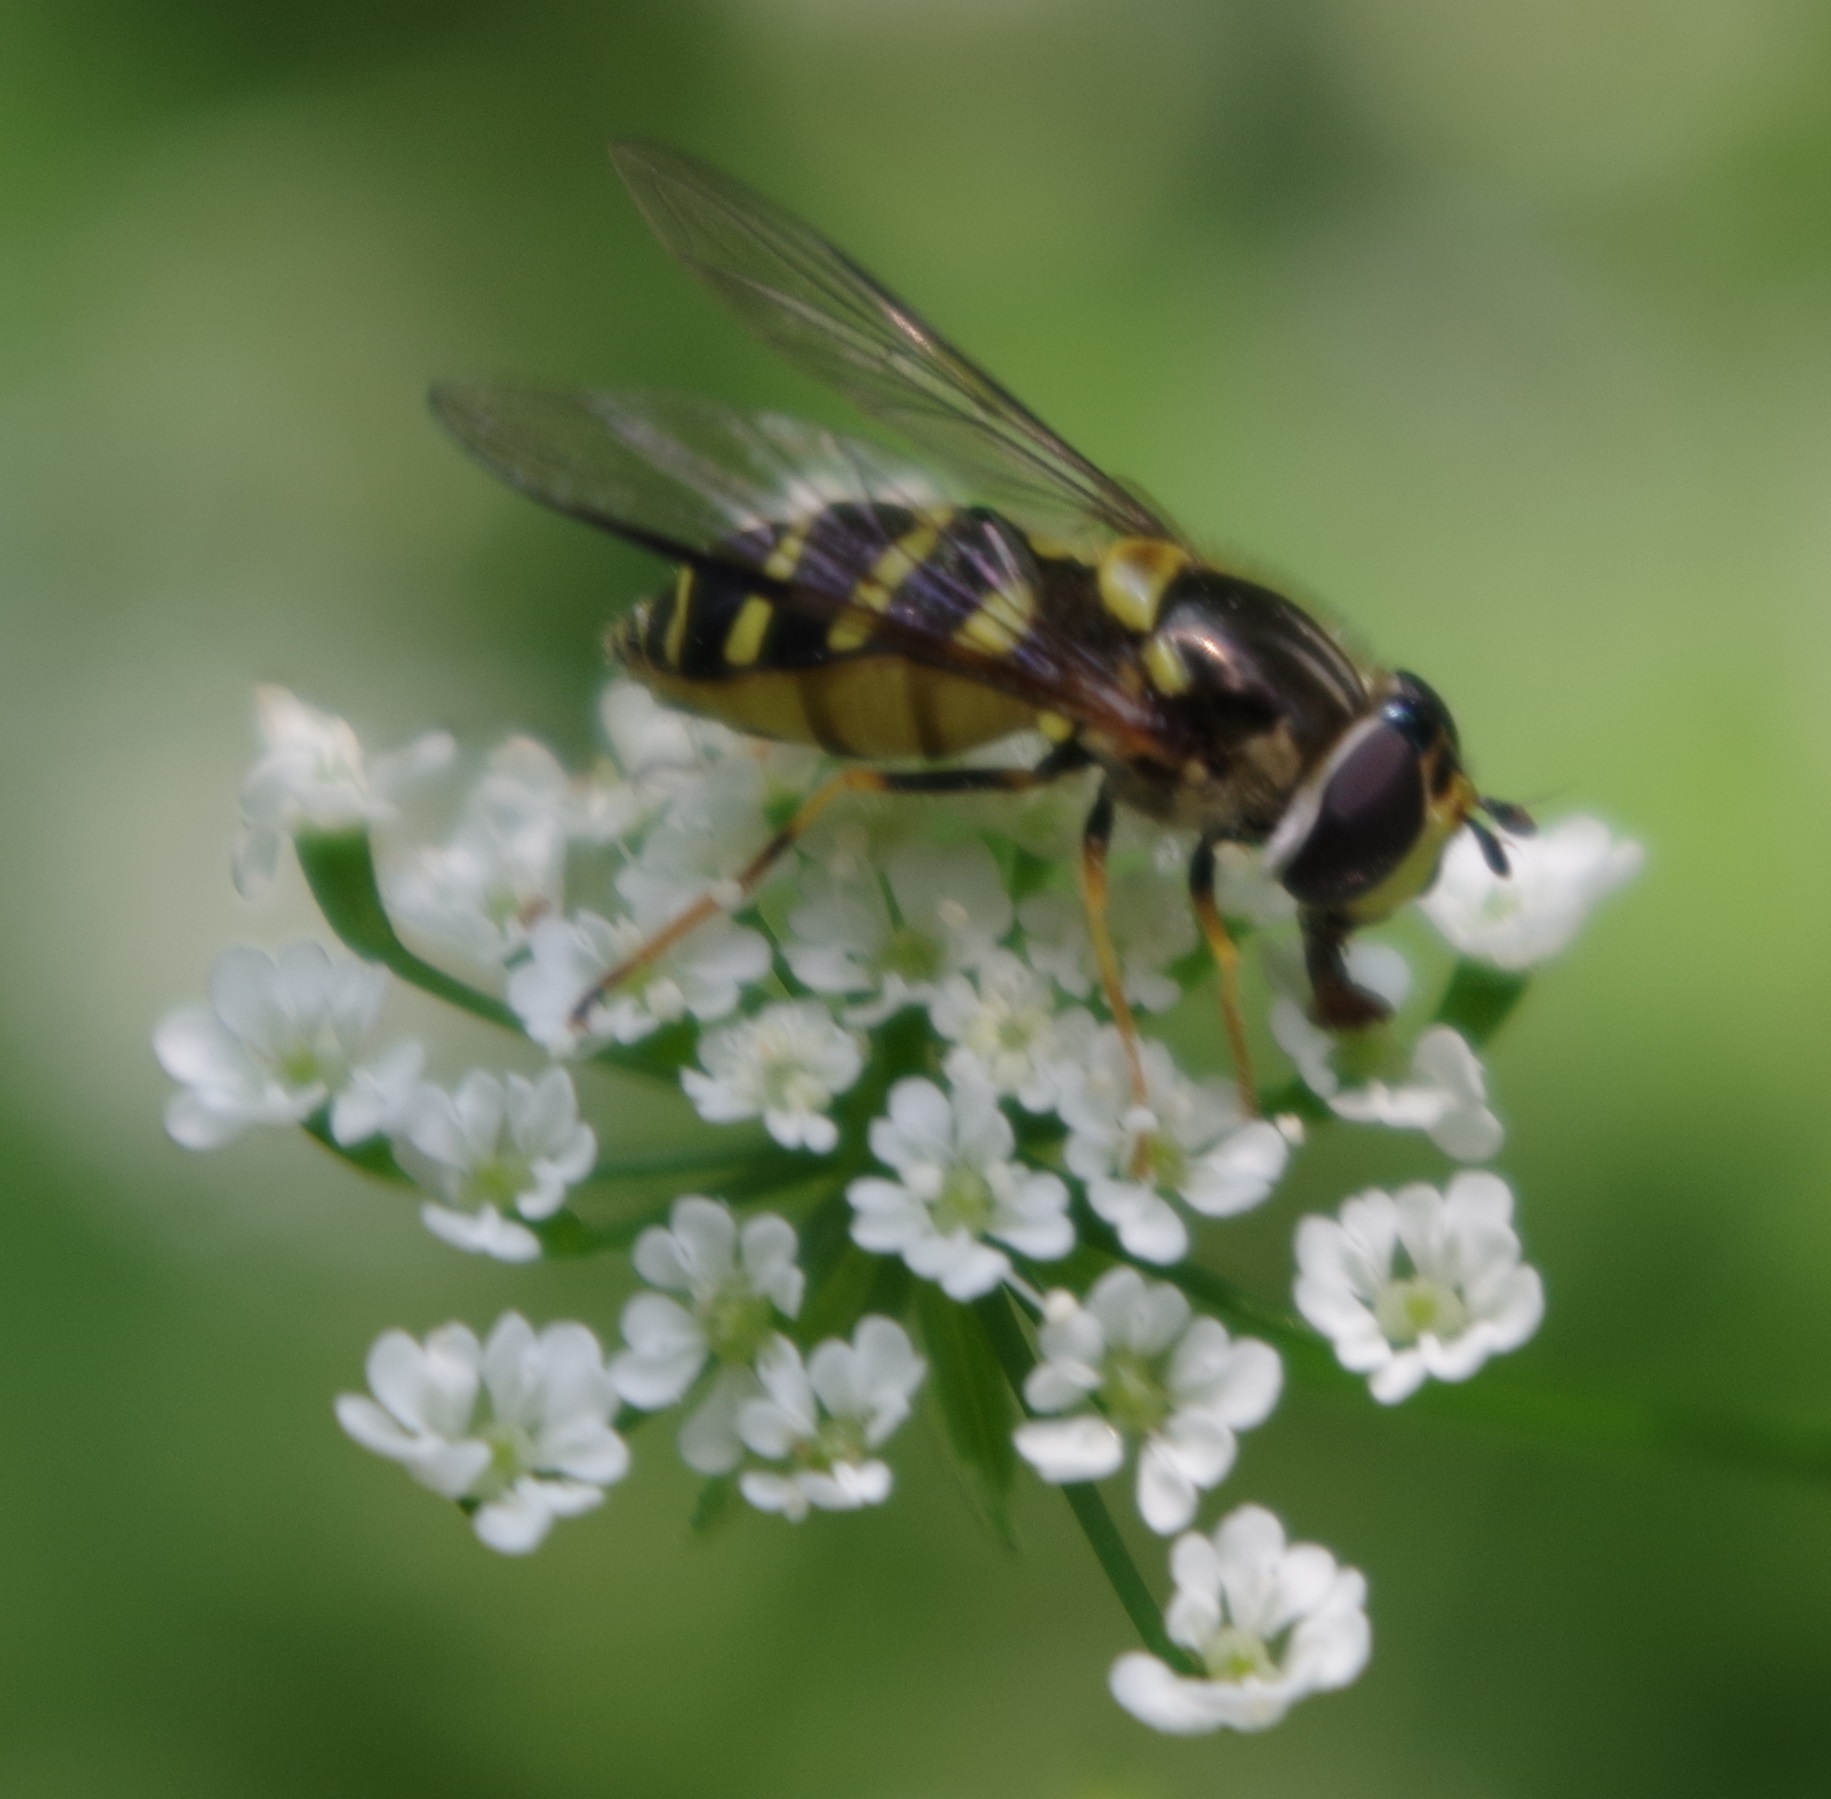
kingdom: Animalia
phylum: Arthropoda
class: Insecta
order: Diptera
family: Syrphidae
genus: Dasysyrphus
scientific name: Dasysyrphus albostriatus
